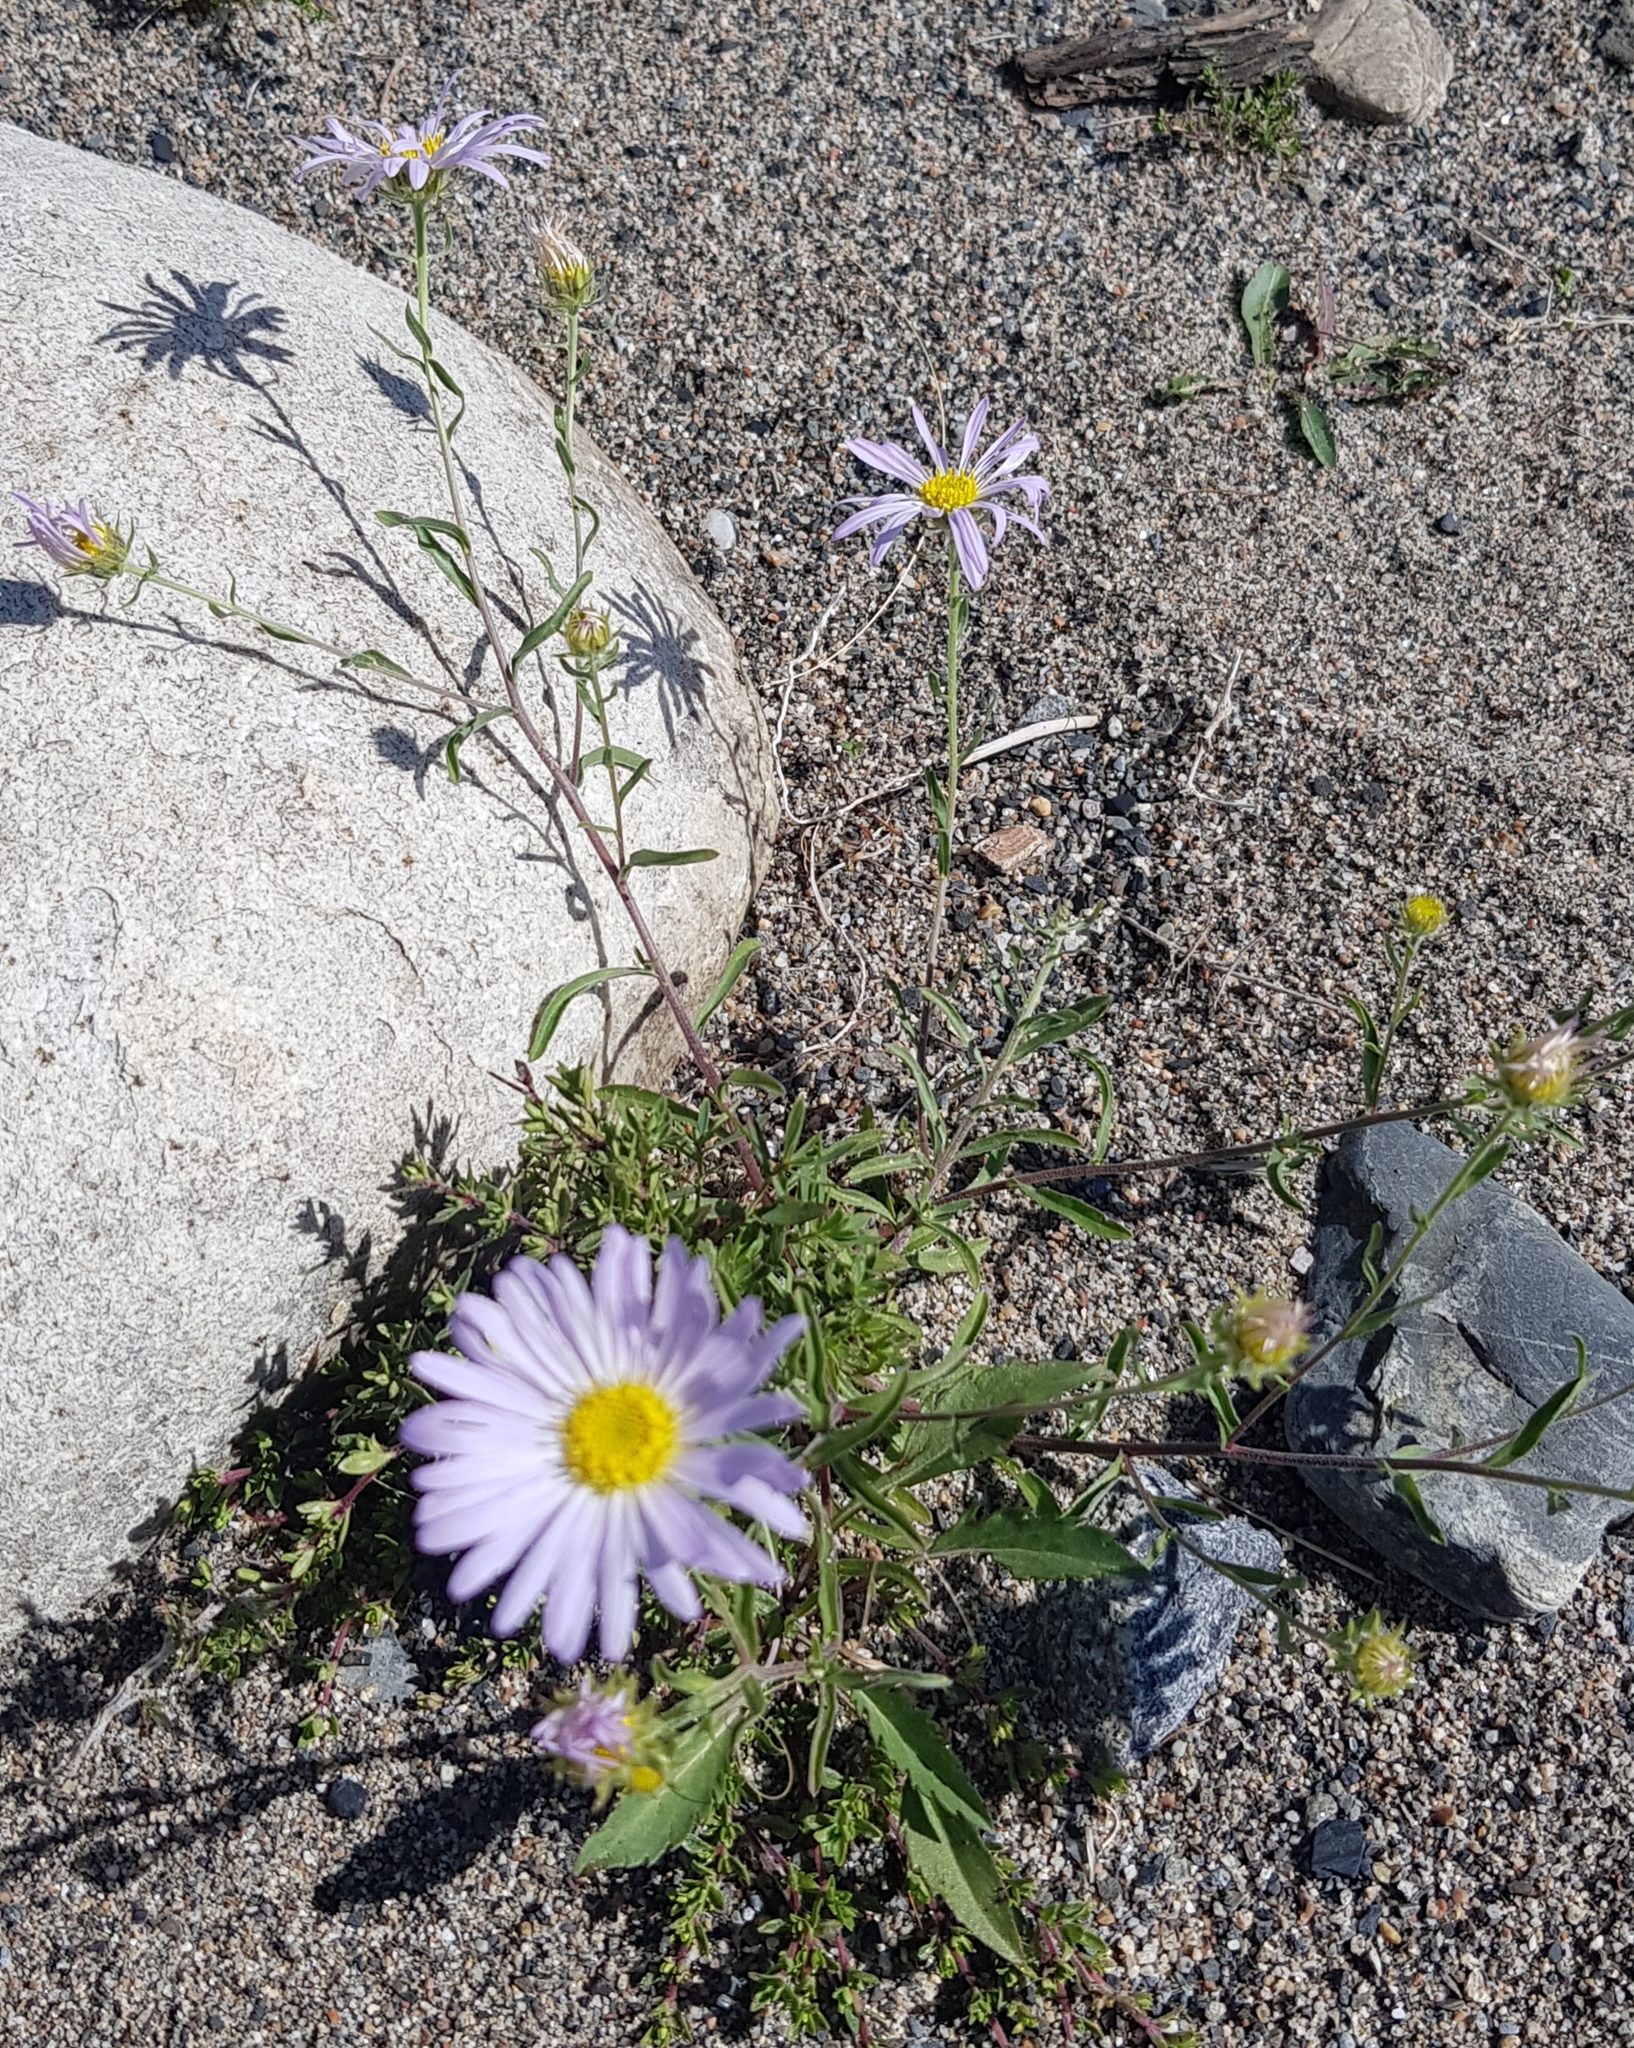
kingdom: Plantae
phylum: Tracheophyta
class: Magnoliopsida
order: Asterales
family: Asteraceae
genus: Heteropappus
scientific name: Heteropappus altaicus
